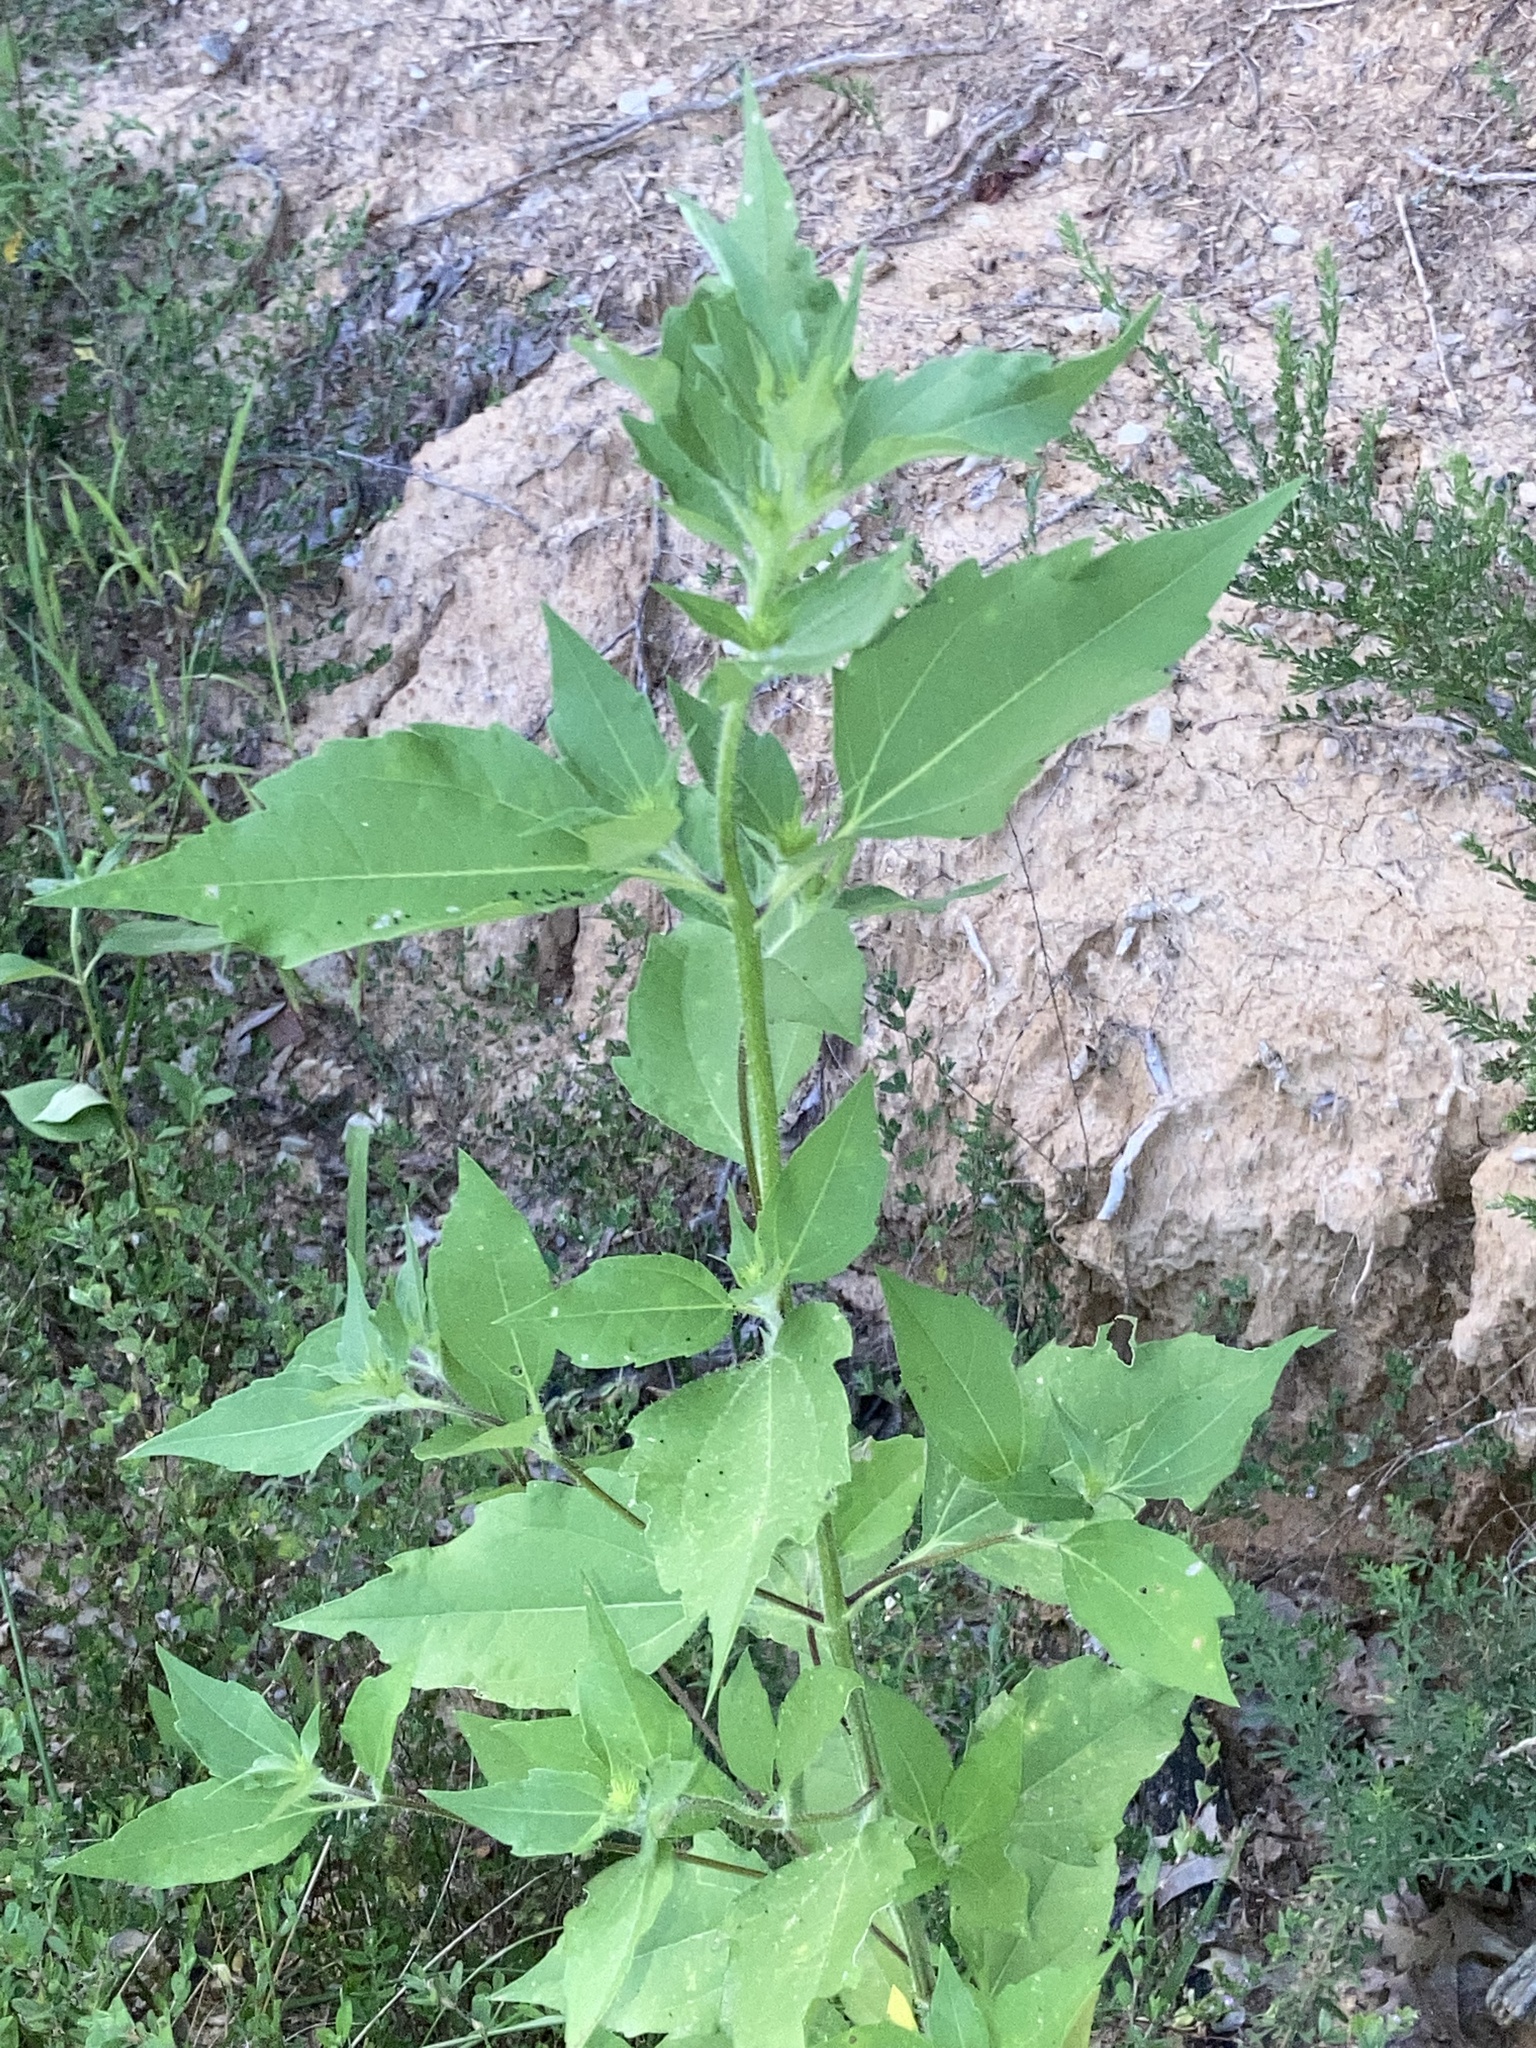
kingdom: Plantae
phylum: Tracheophyta
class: Magnoliopsida
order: Asterales
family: Asteraceae
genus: Iva
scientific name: Iva annua
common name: Marsh-elder
